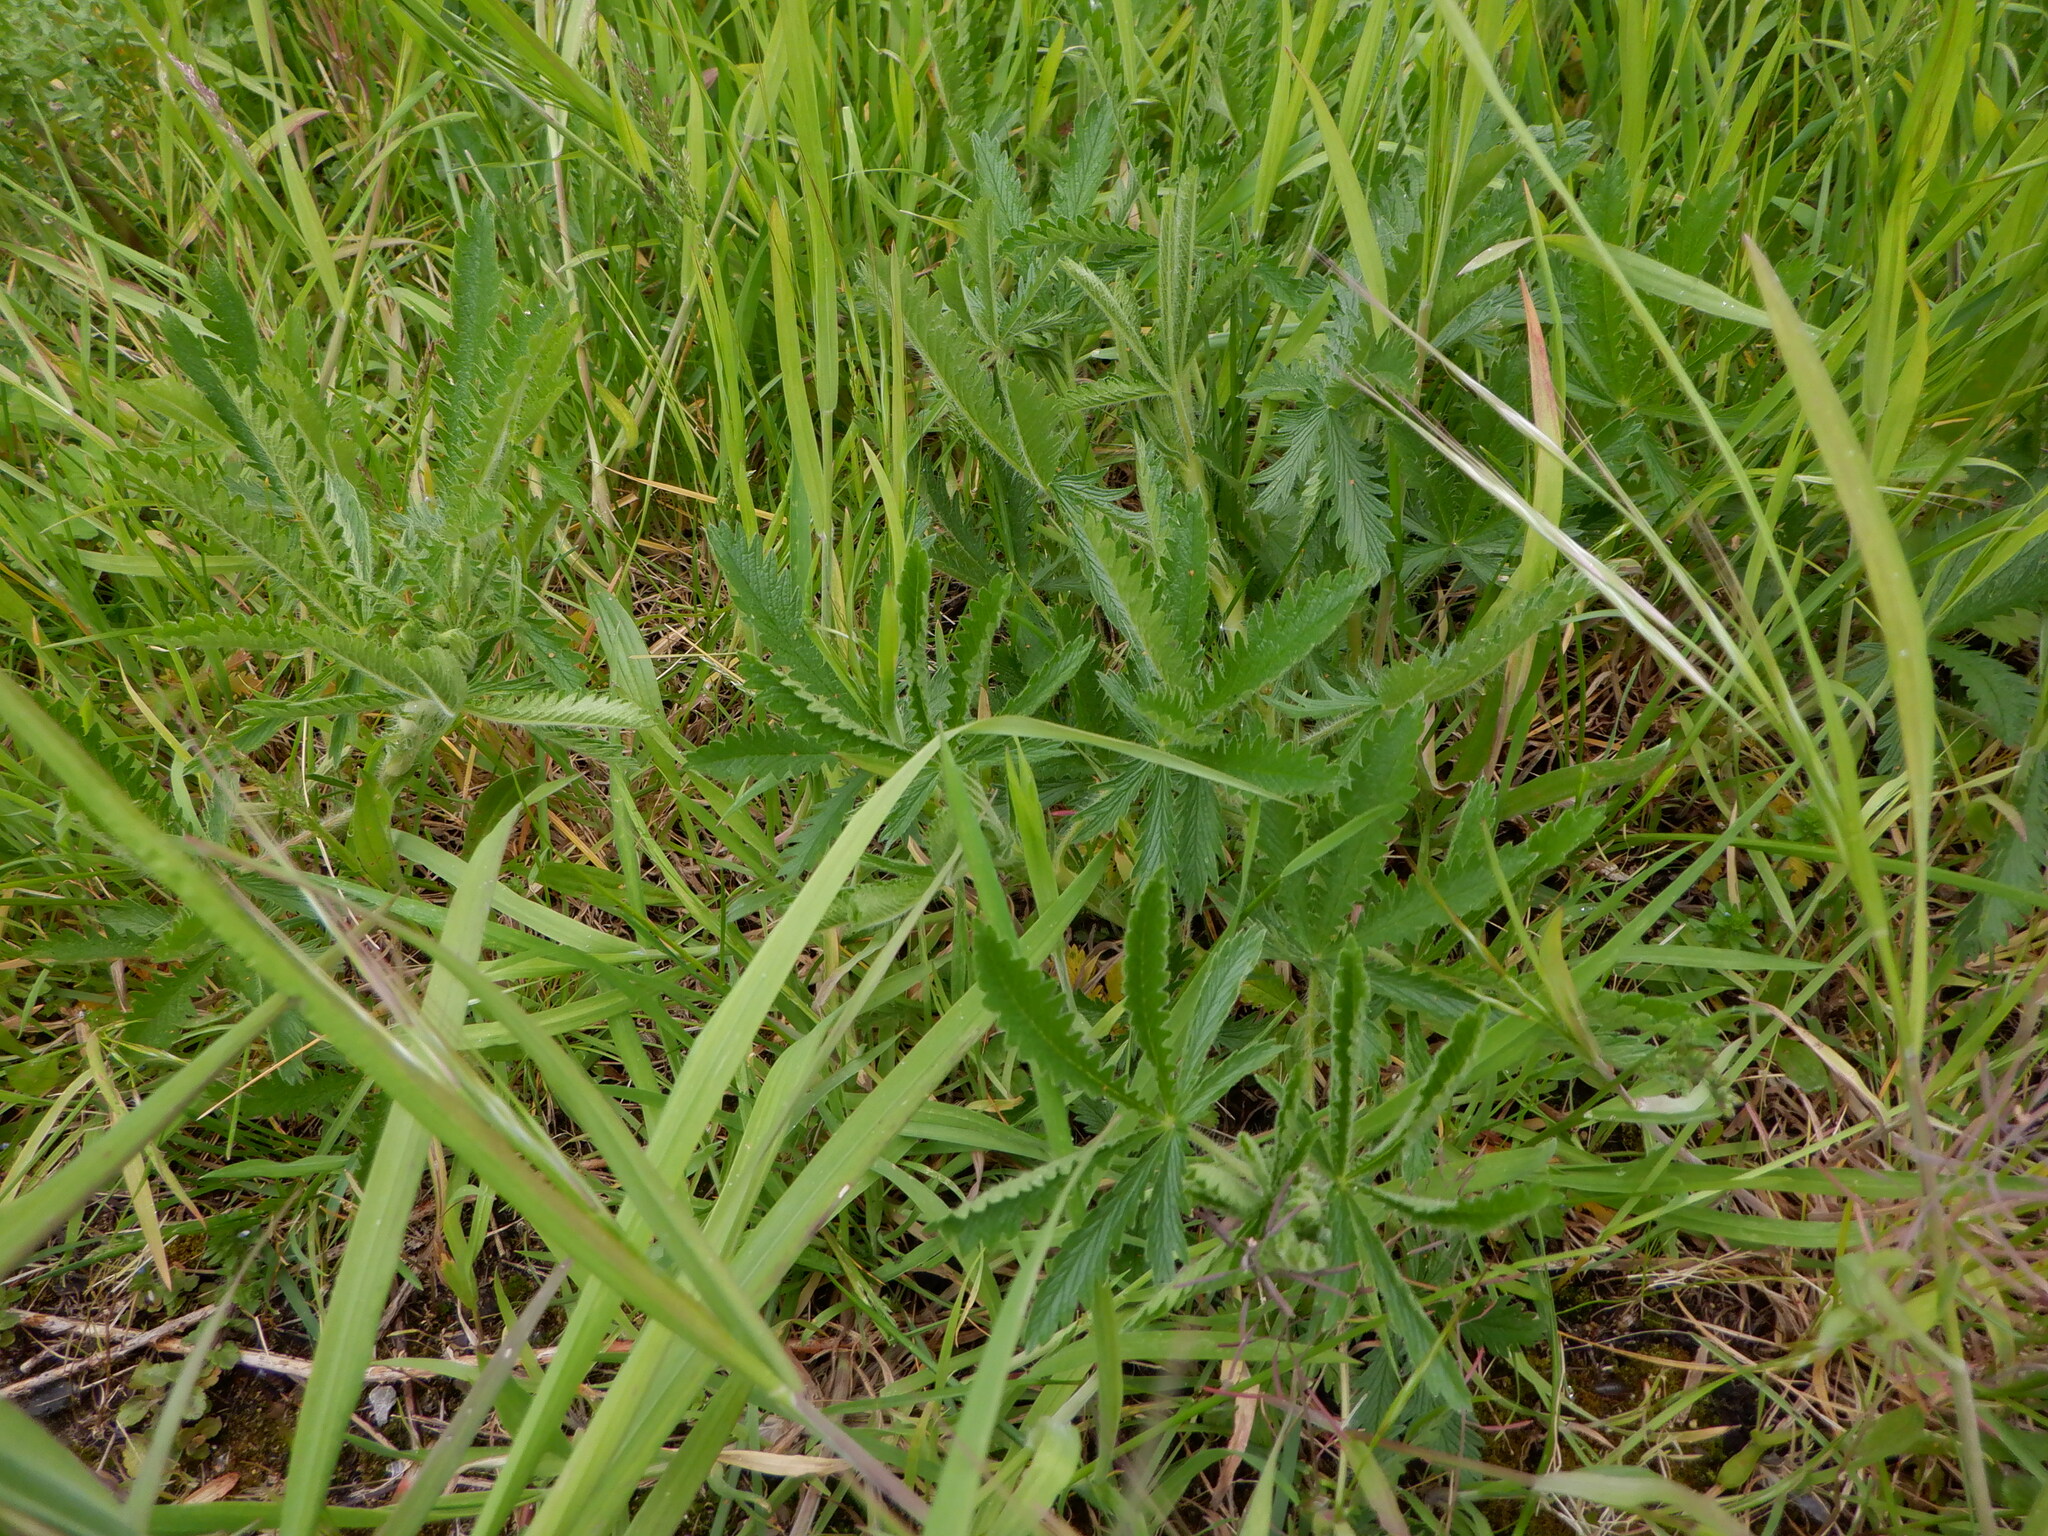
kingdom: Plantae
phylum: Tracheophyta
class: Magnoliopsida
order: Rosales
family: Rosaceae
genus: Potentilla
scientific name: Potentilla recta
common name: Sulphur cinquefoil
